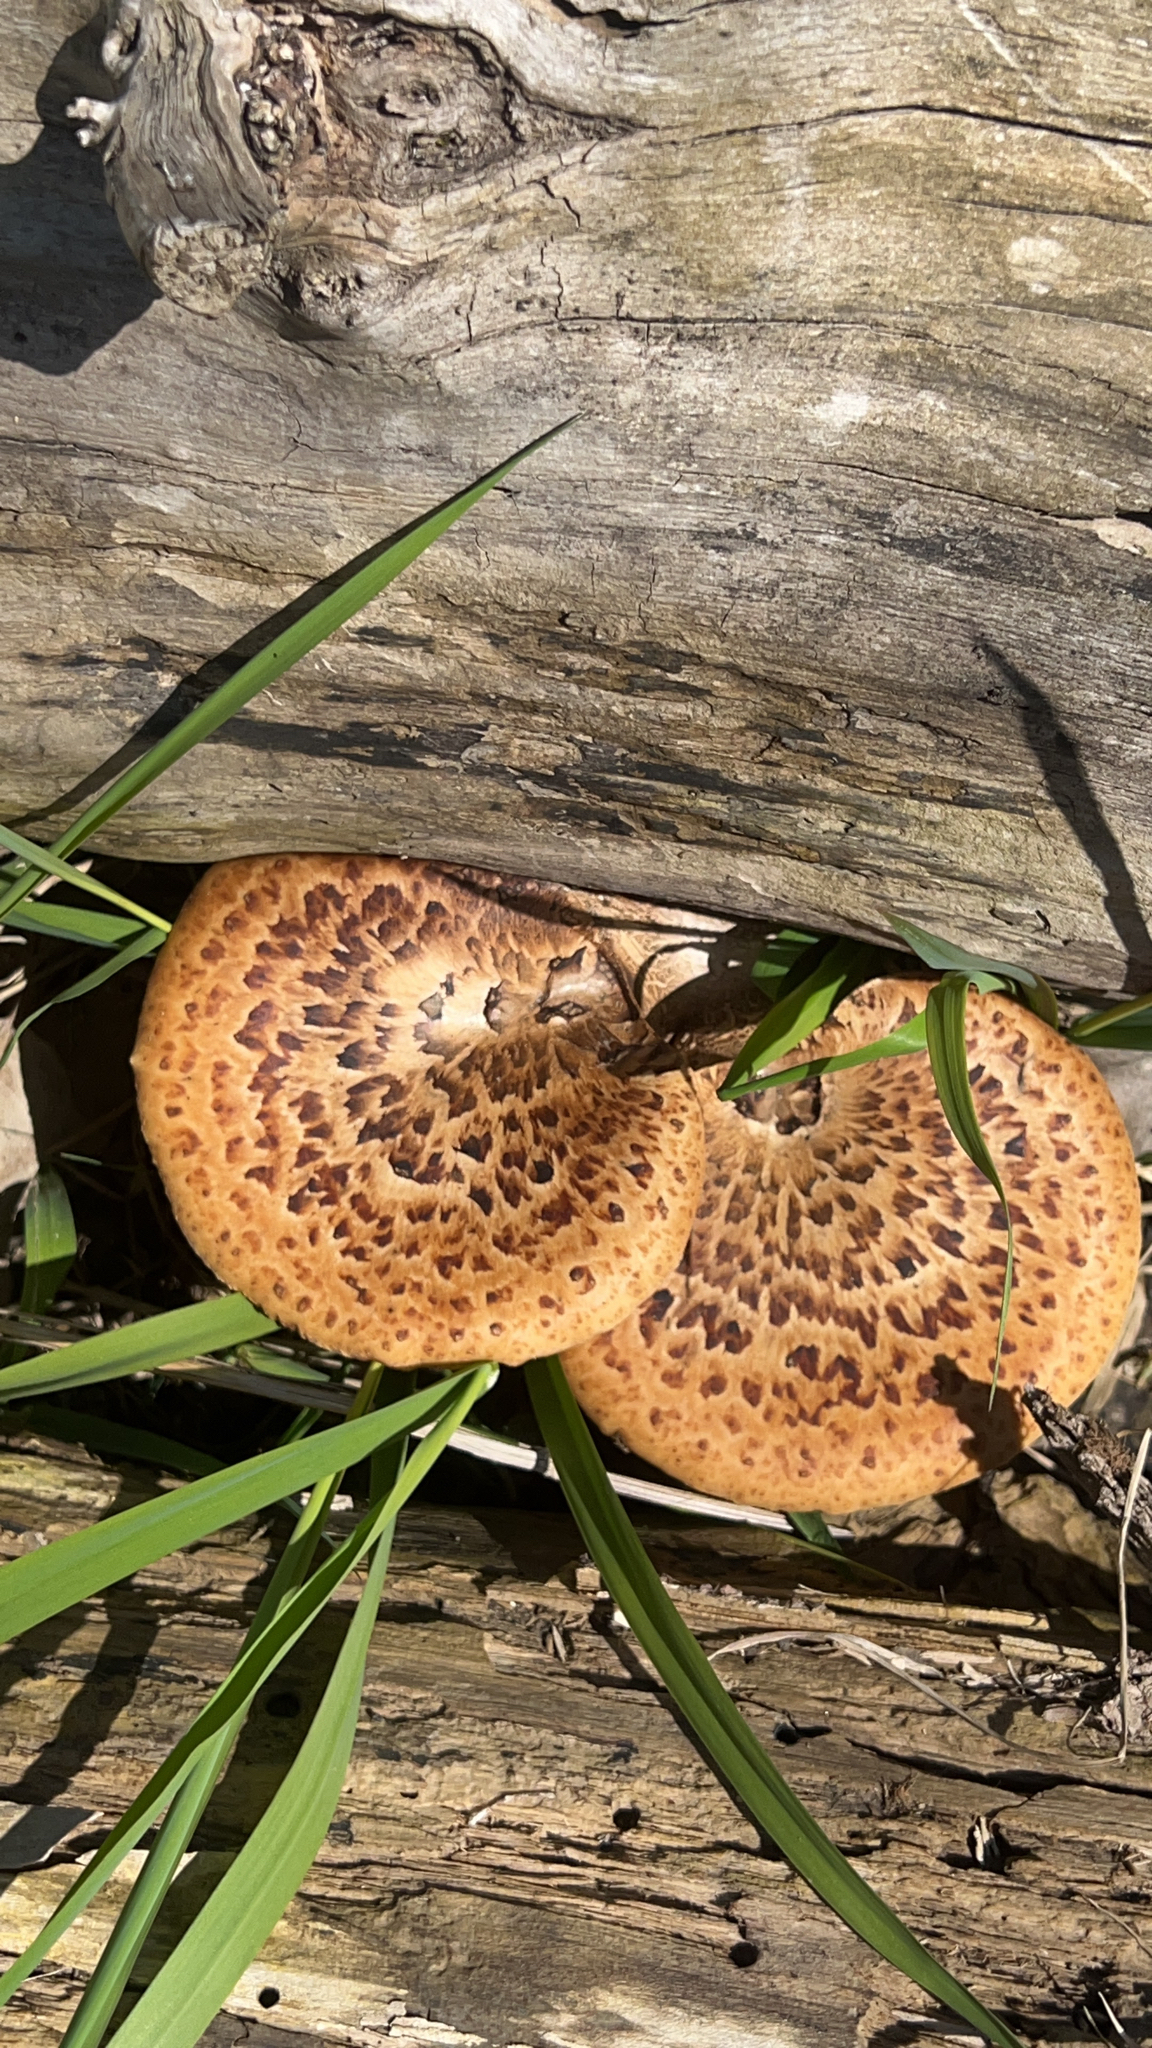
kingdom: Fungi
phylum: Basidiomycota
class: Agaricomycetes
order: Polyporales
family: Polyporaceae
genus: Cerioporus
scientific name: Cerioporus squamosus
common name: Dryad's saddle
